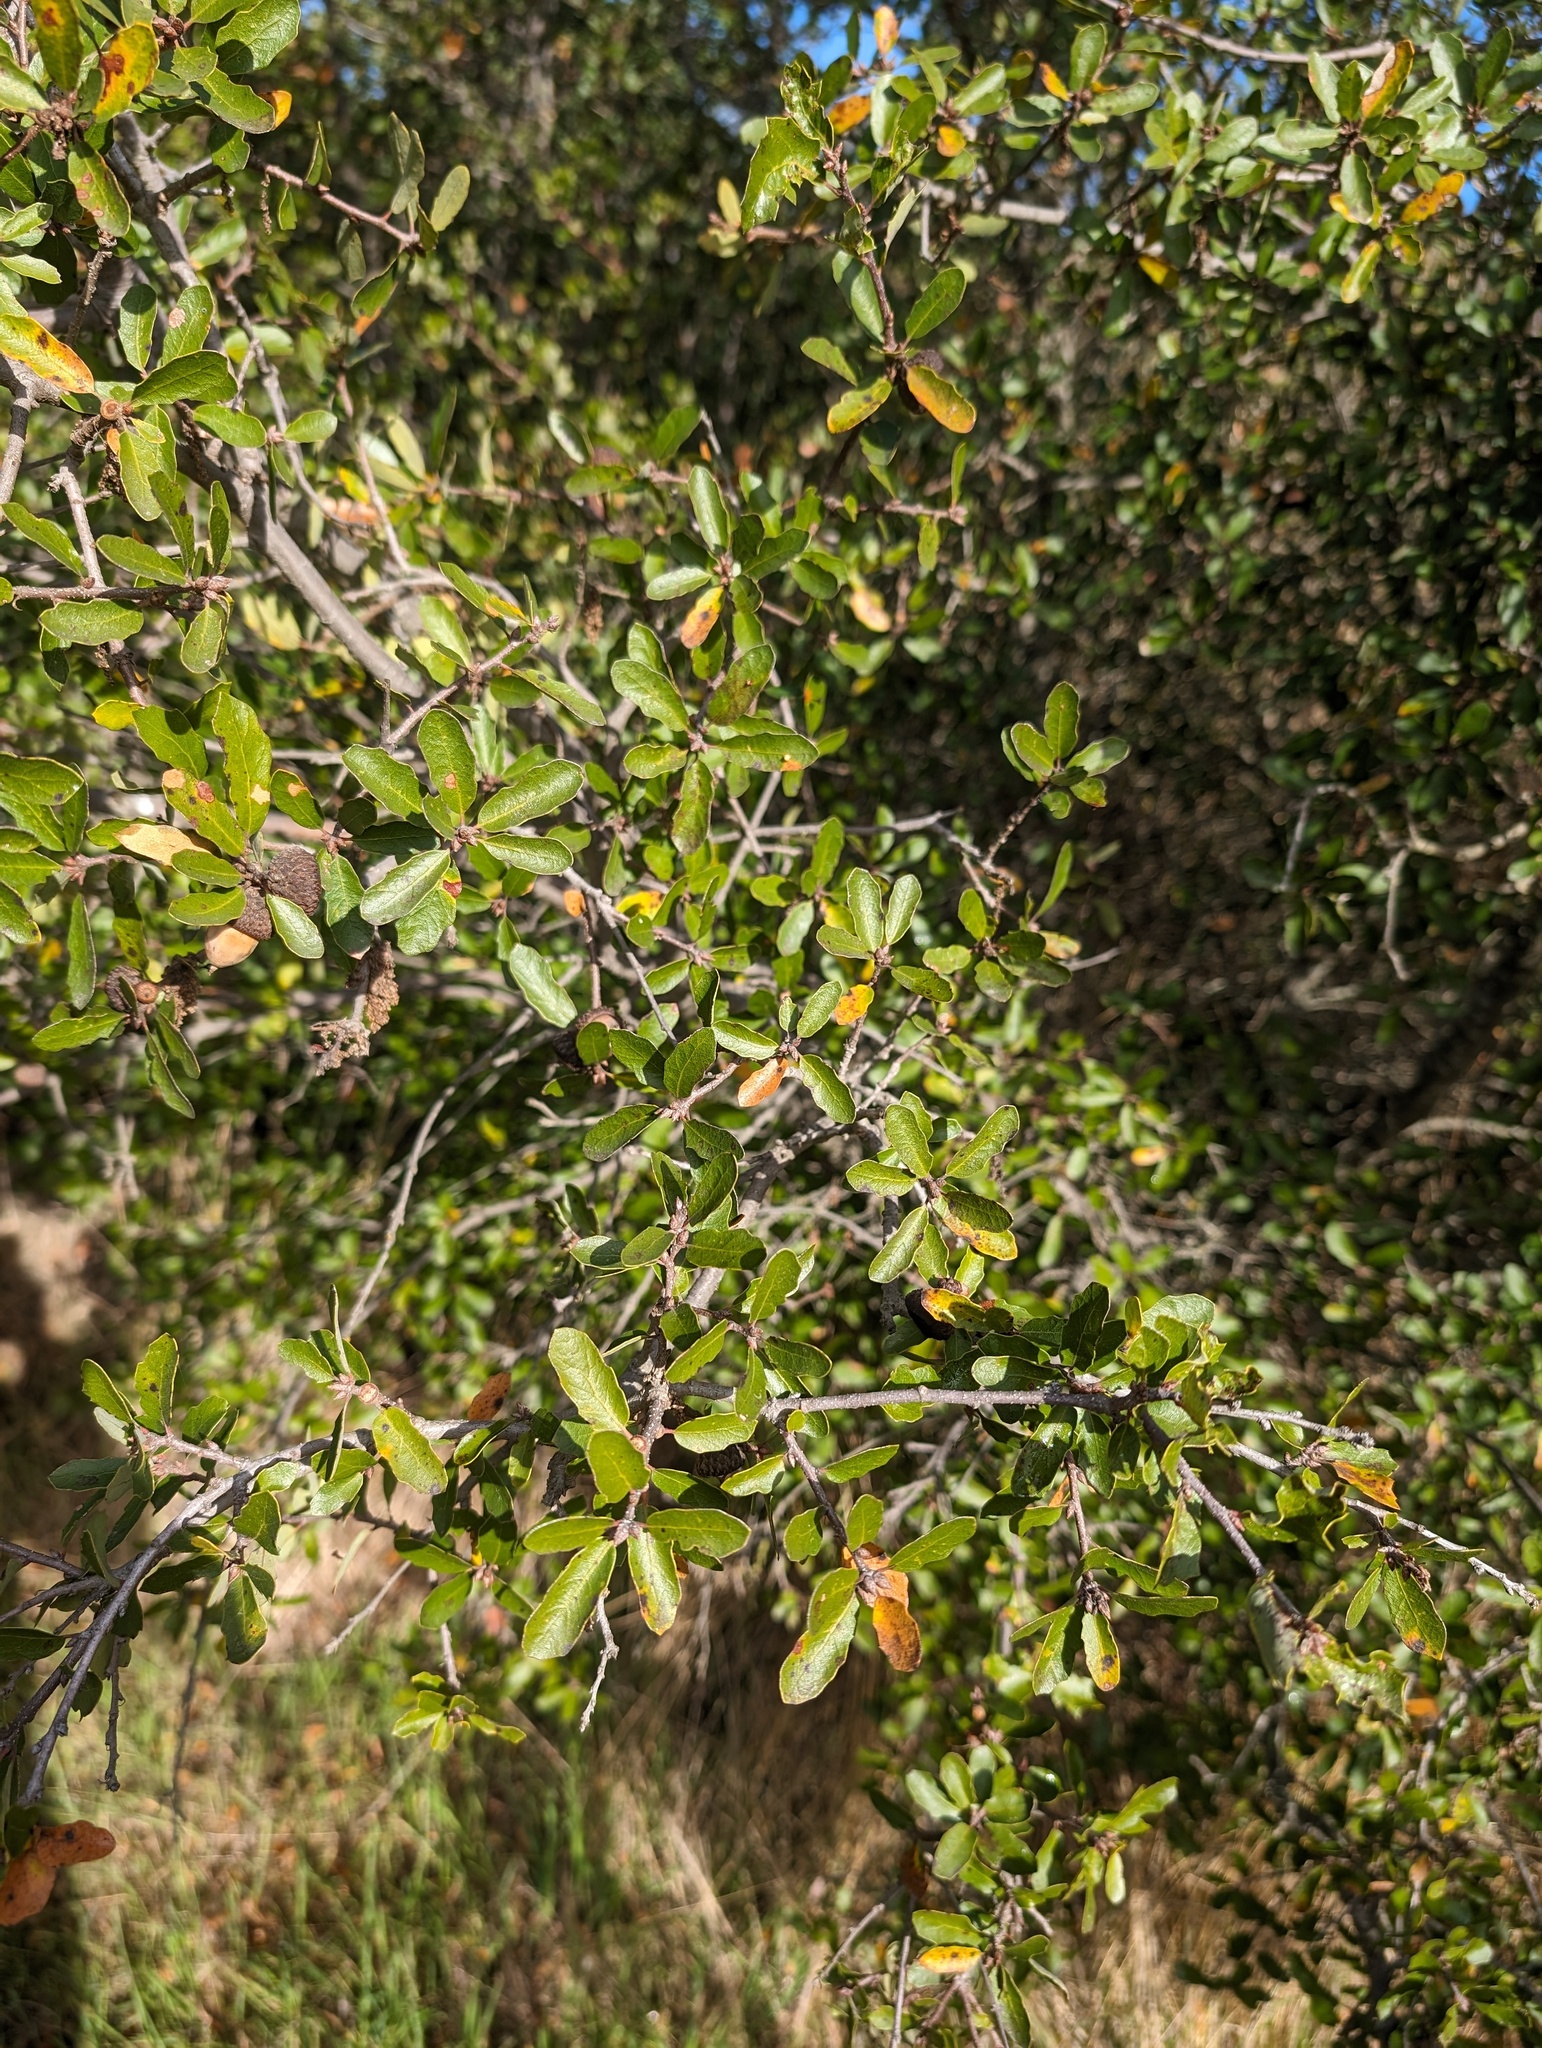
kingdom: Plantae
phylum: Tracheophyta
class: Magnoliopsida
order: Fagales
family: Fagaceae
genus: Quercus
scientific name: Quercus pacifica
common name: Channel island scrub oak
